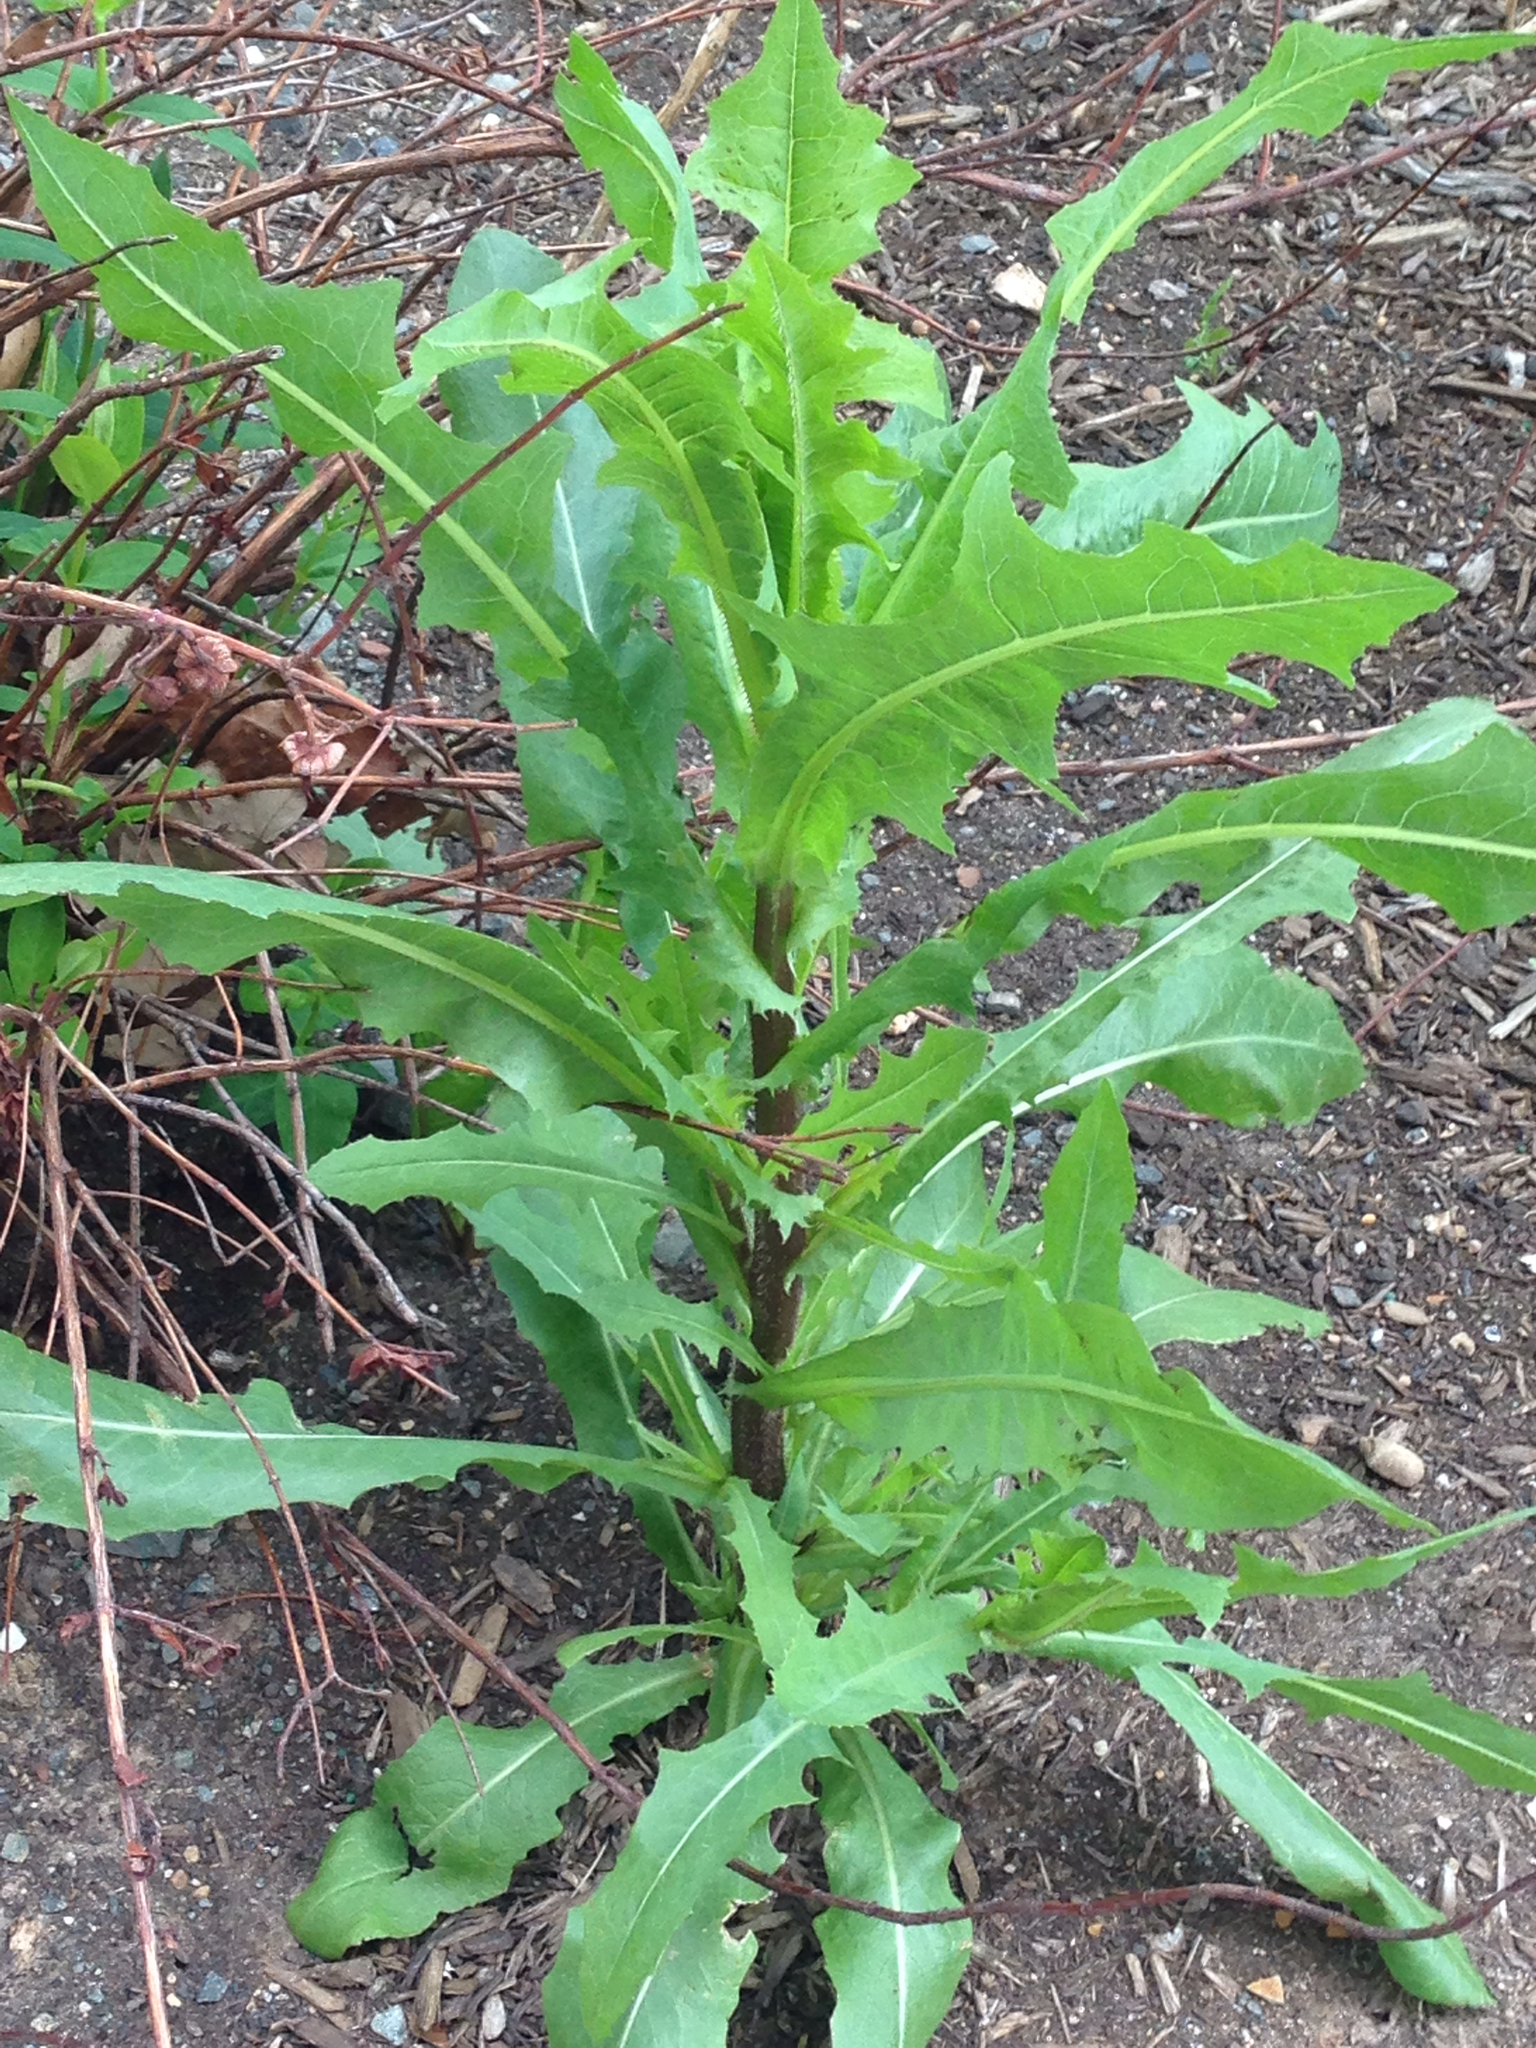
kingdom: Plantae
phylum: Tracheophyta
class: Magnoliopsida
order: Asterales
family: Asteraceae
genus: Lactuca
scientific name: Lactuca serriola
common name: Prickly lettuce
